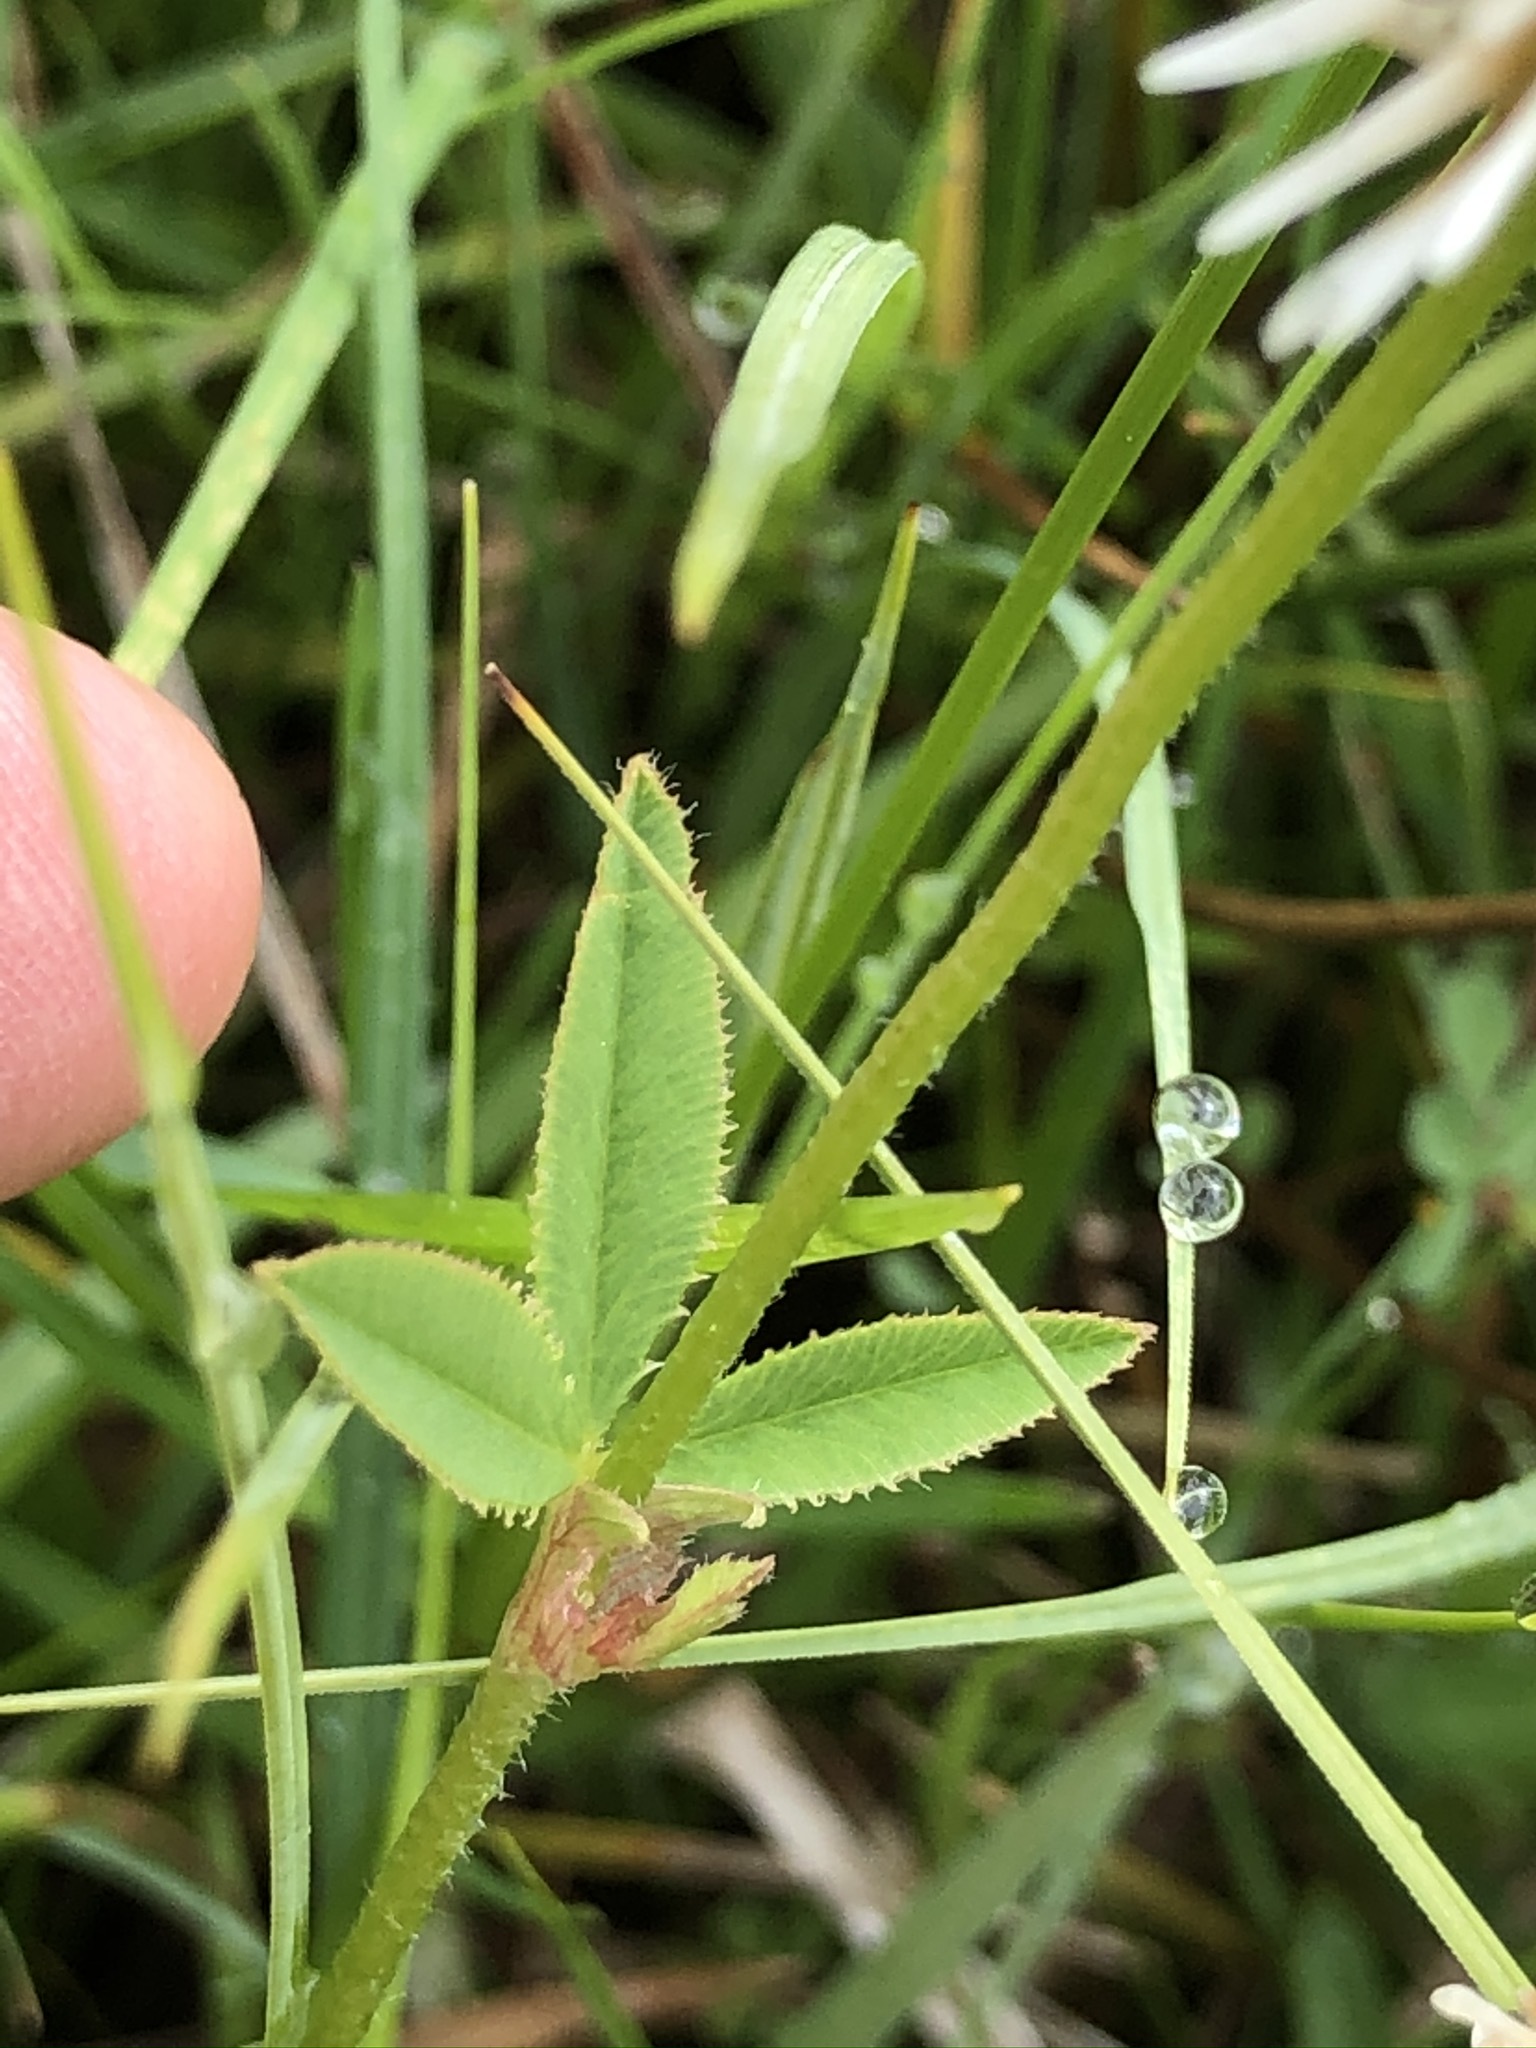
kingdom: Plantae
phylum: Tracheophyta
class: Magnoliopsida
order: Fabales
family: Fabaceae
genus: Trifolium
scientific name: Trifolium montanum
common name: Mountain clover
